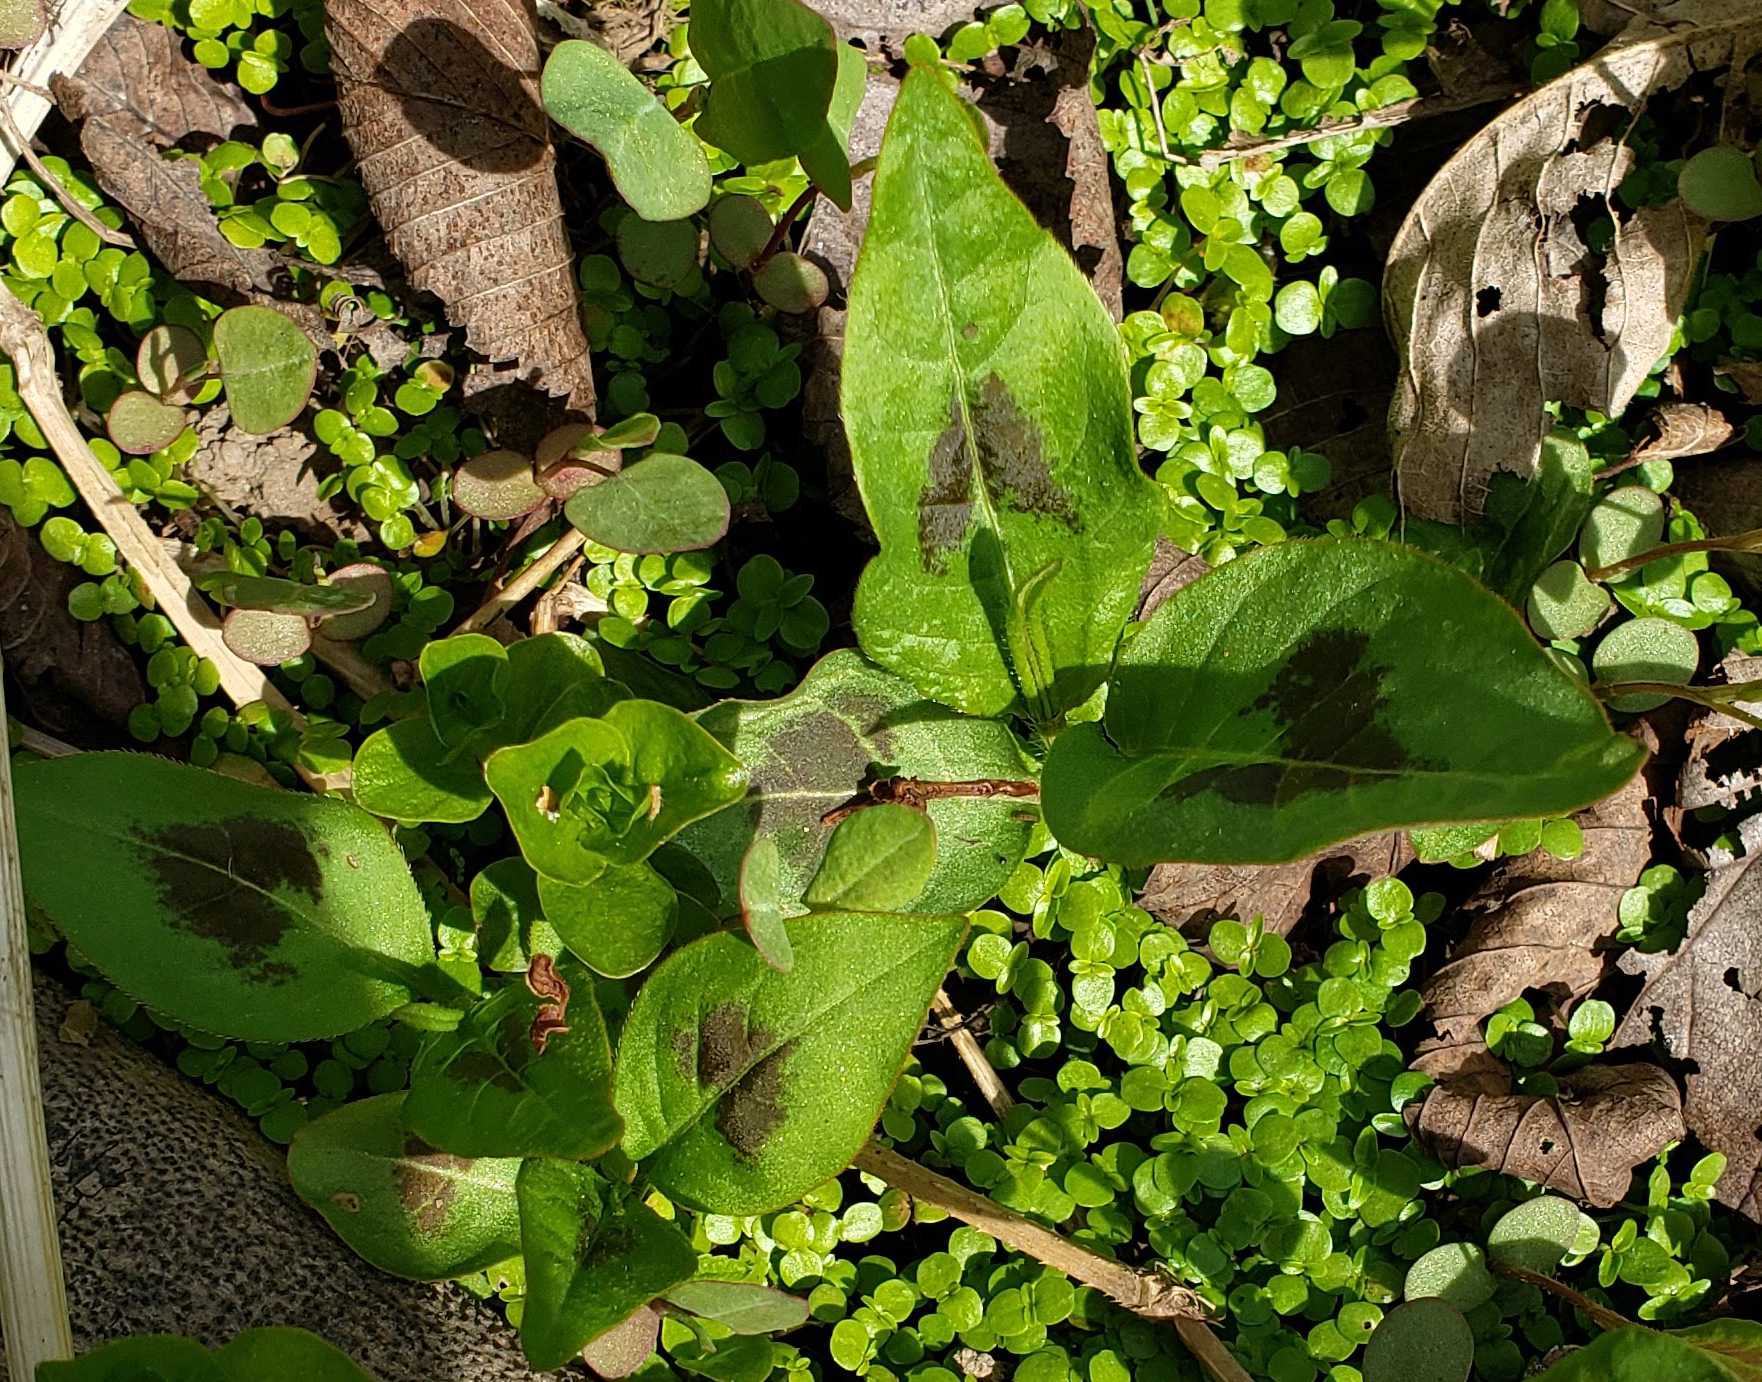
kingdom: Plantae
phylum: Tracheophyta
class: Magnoliopsida
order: Caryophyllales
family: Polygonaceae
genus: Persicaria
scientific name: Persicaria virginiana
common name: Jumpseed
